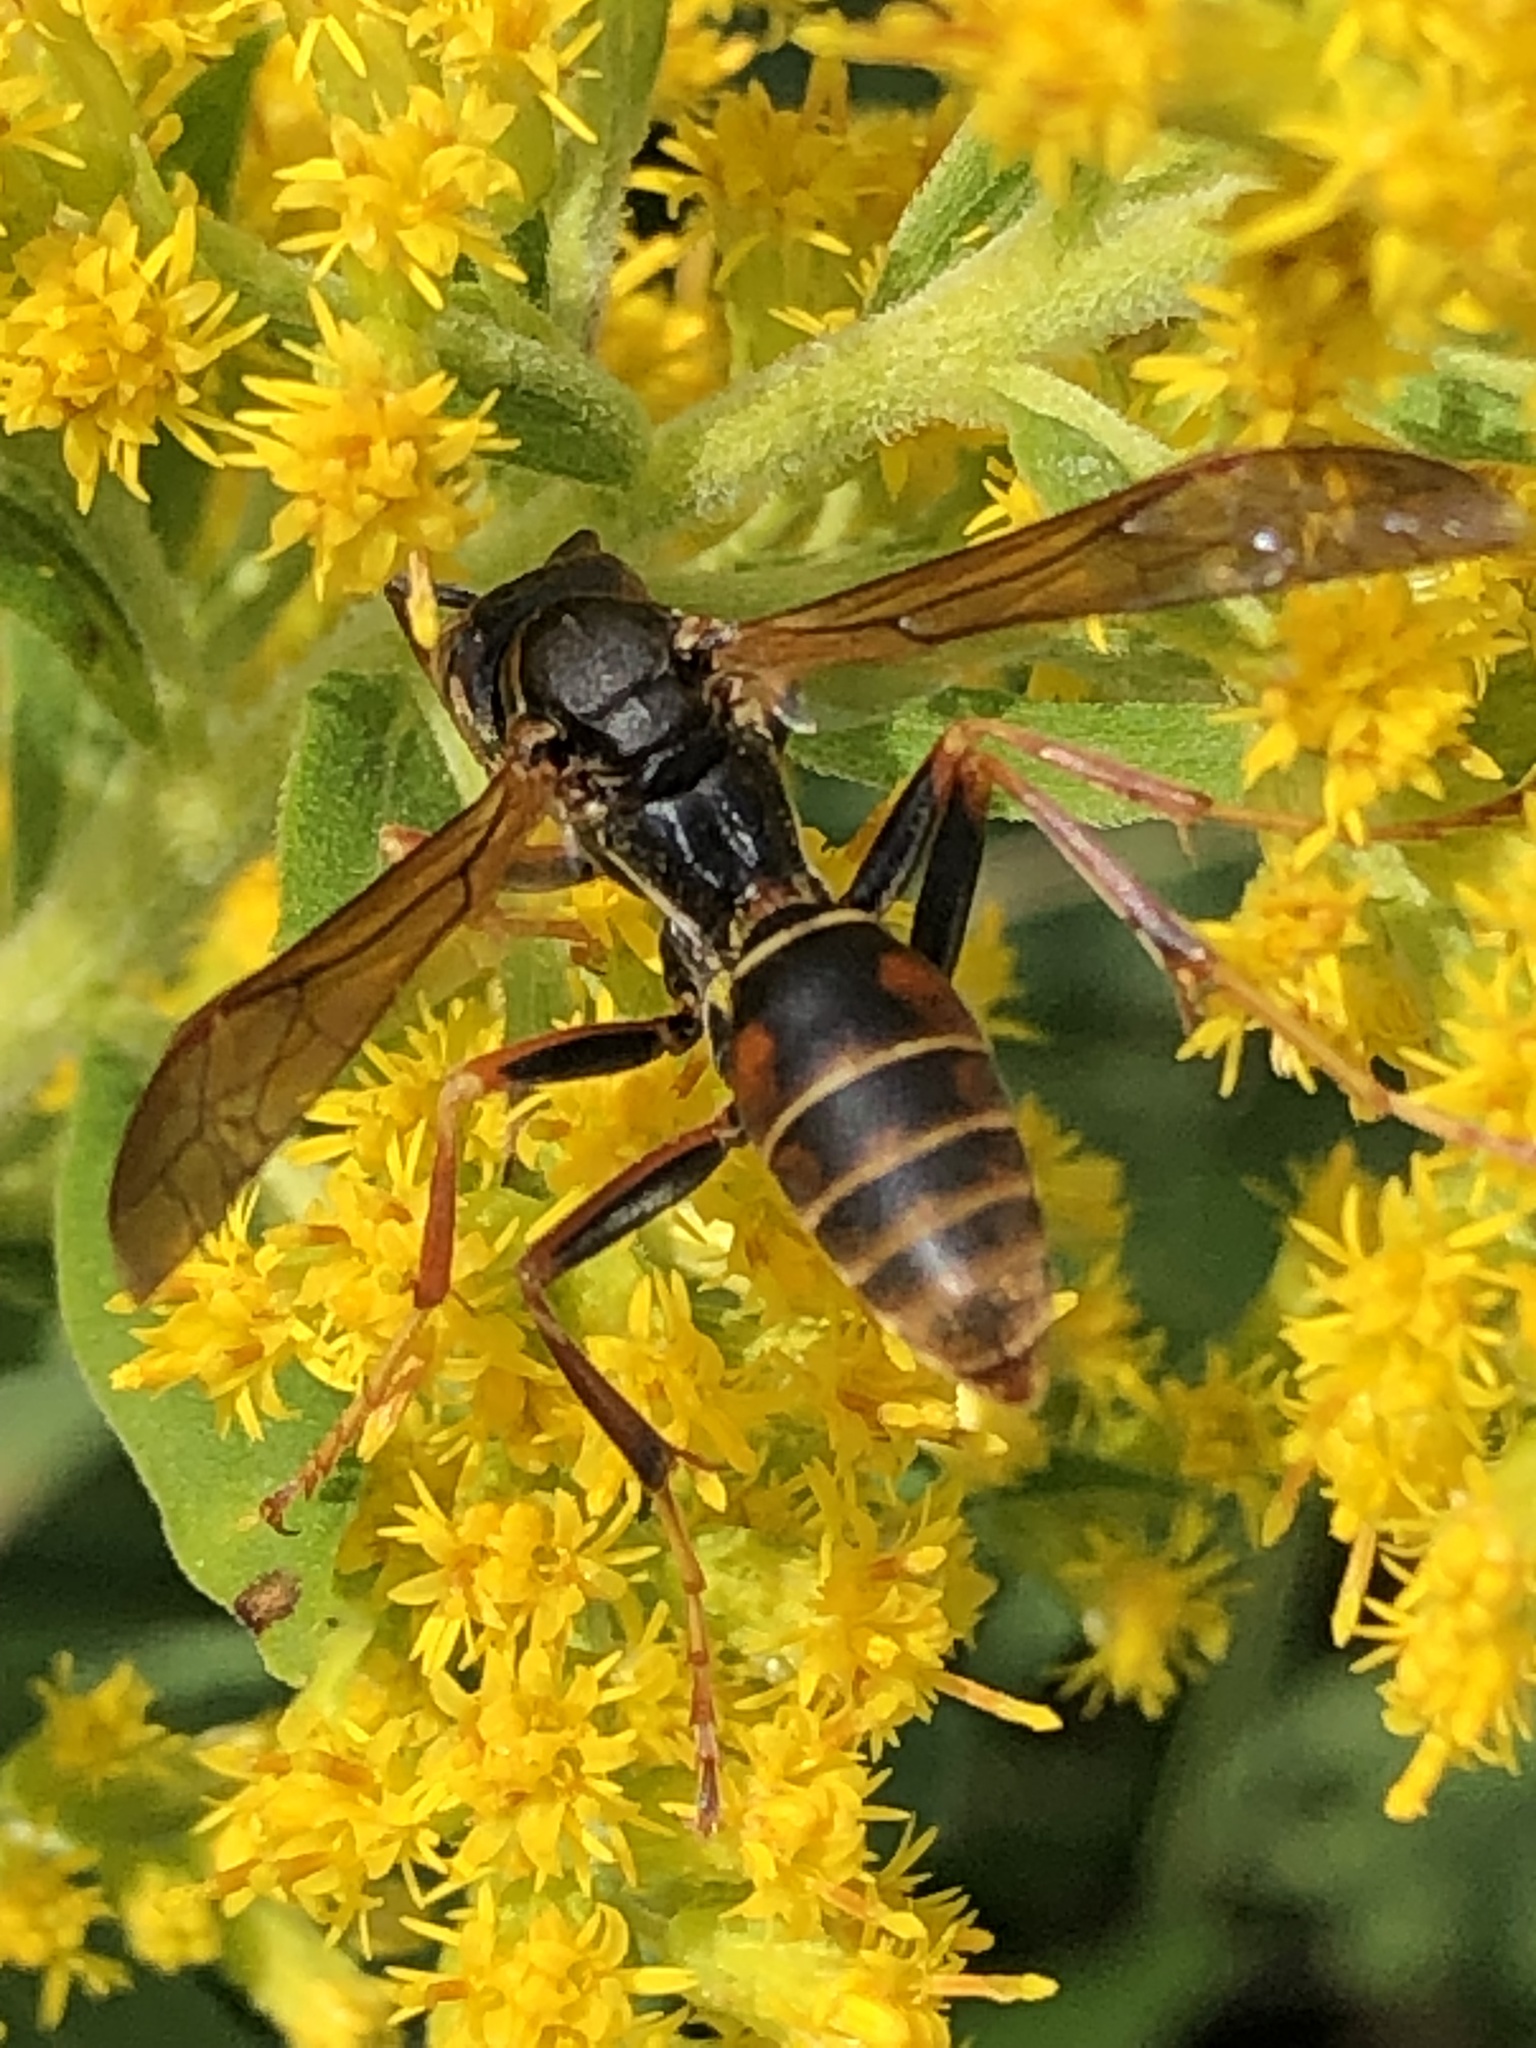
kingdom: Animalia
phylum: Arthropoda
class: Insecta
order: Hymenoptera
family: Eumenidae
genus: Polistes
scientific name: Polistes fuscatus
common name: Dark paper wasp
